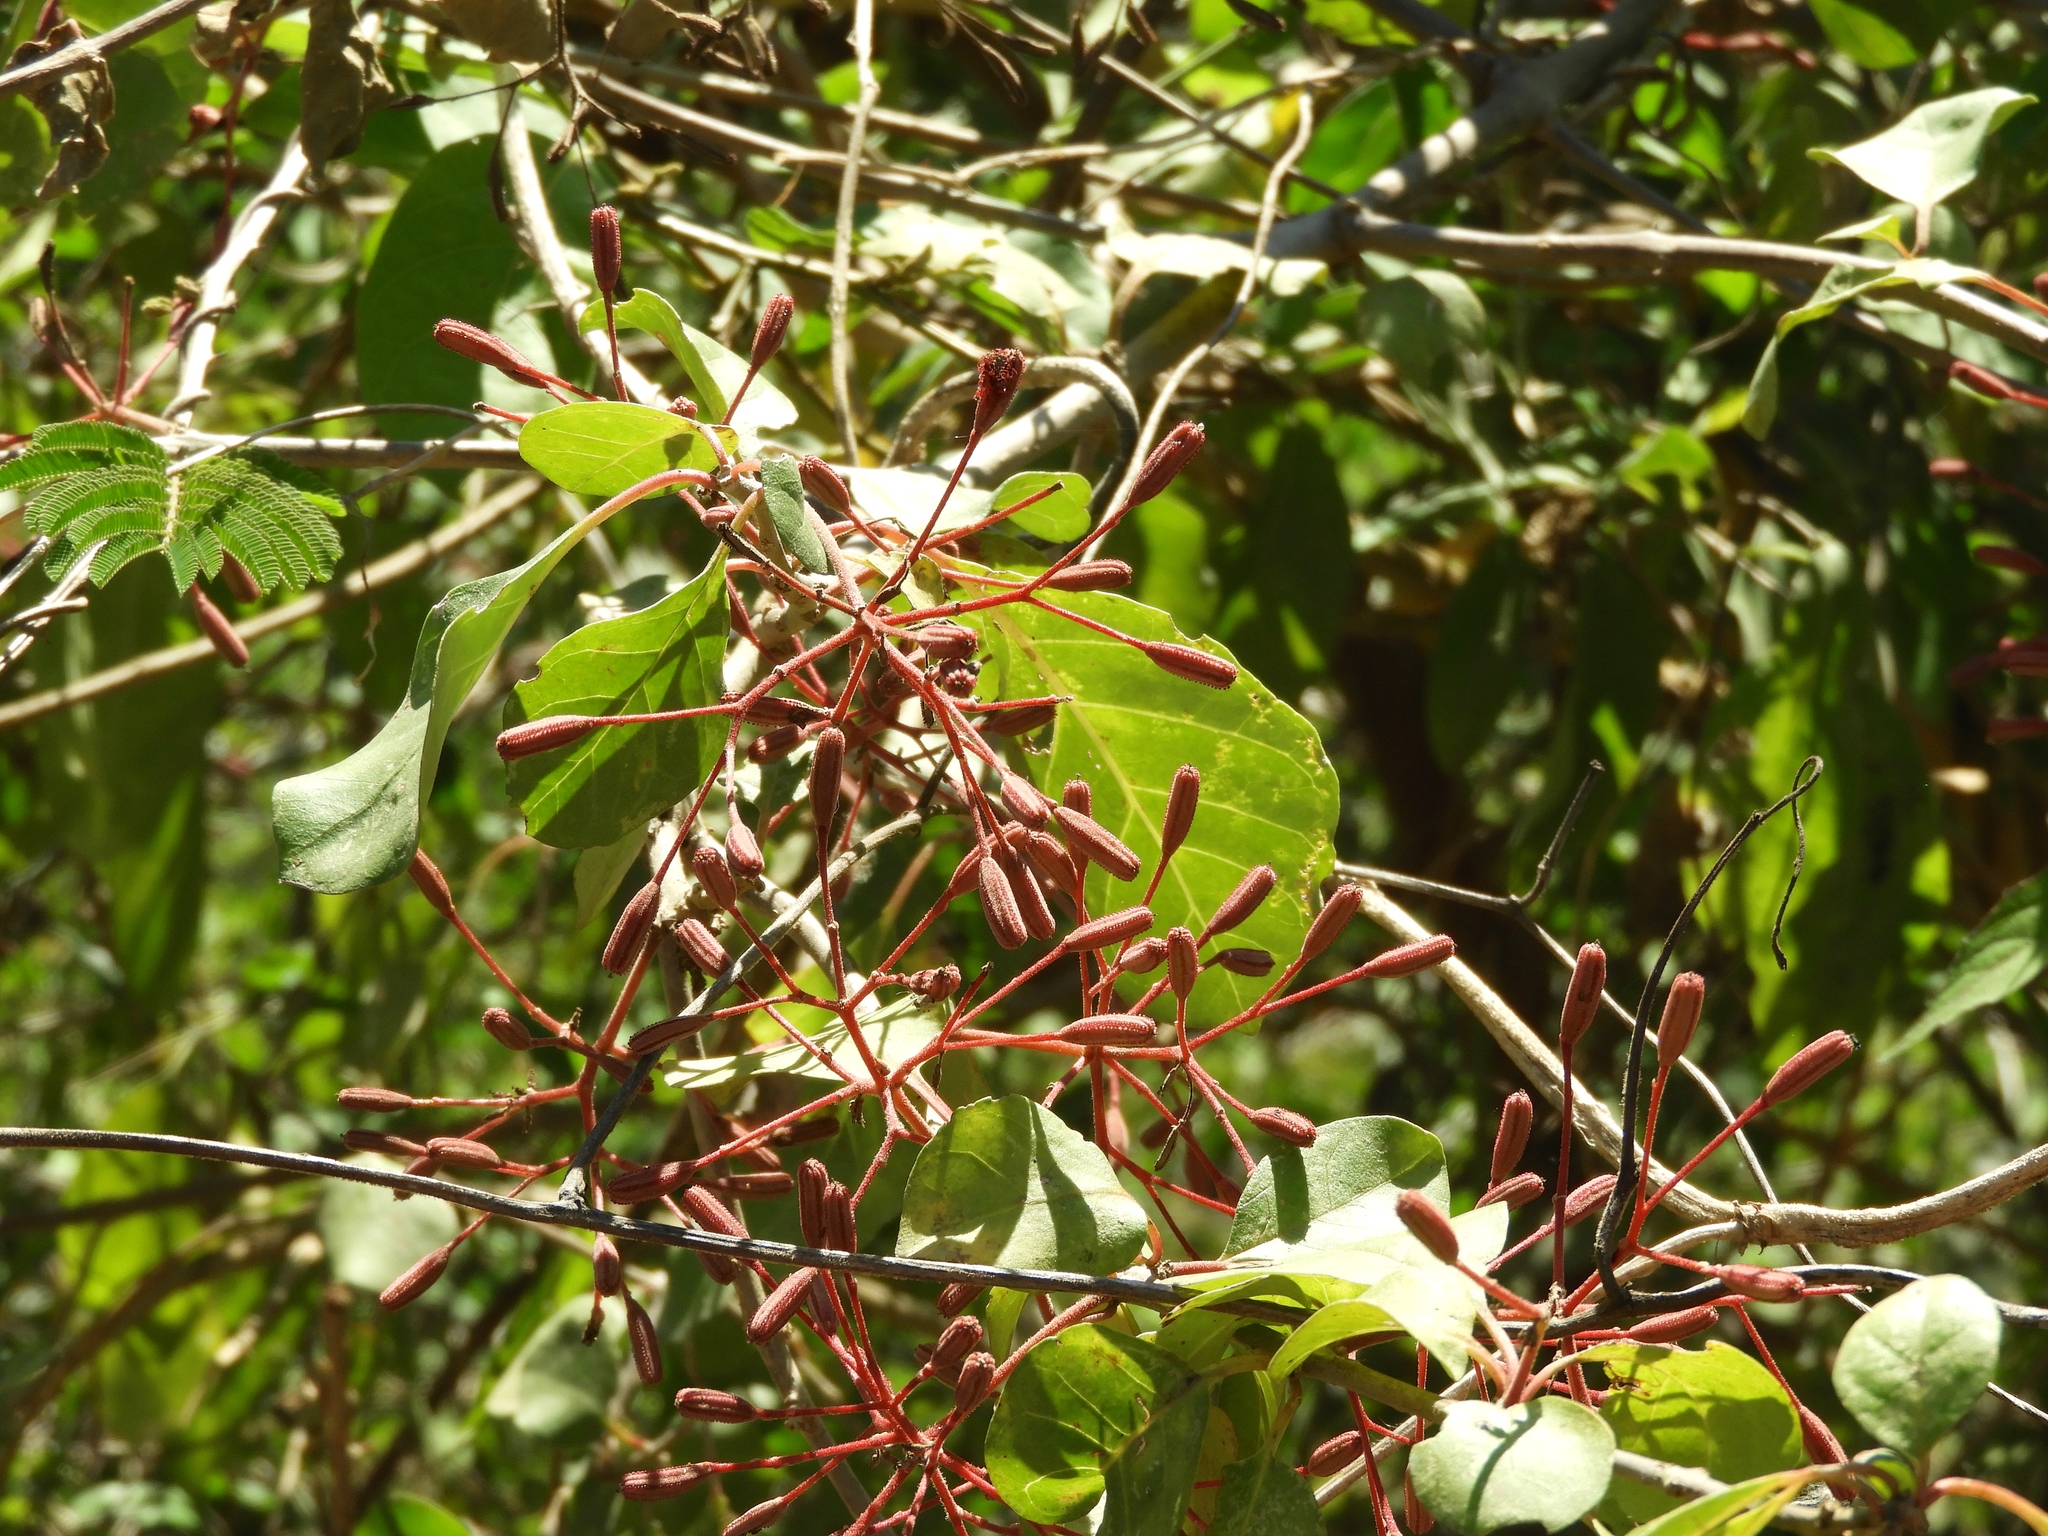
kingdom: Plantae
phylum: Tracheophyta
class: Magnoliopsida
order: Caryophyllales
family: Nyctaginaceae
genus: Pisonia
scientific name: Pisonia capitata
